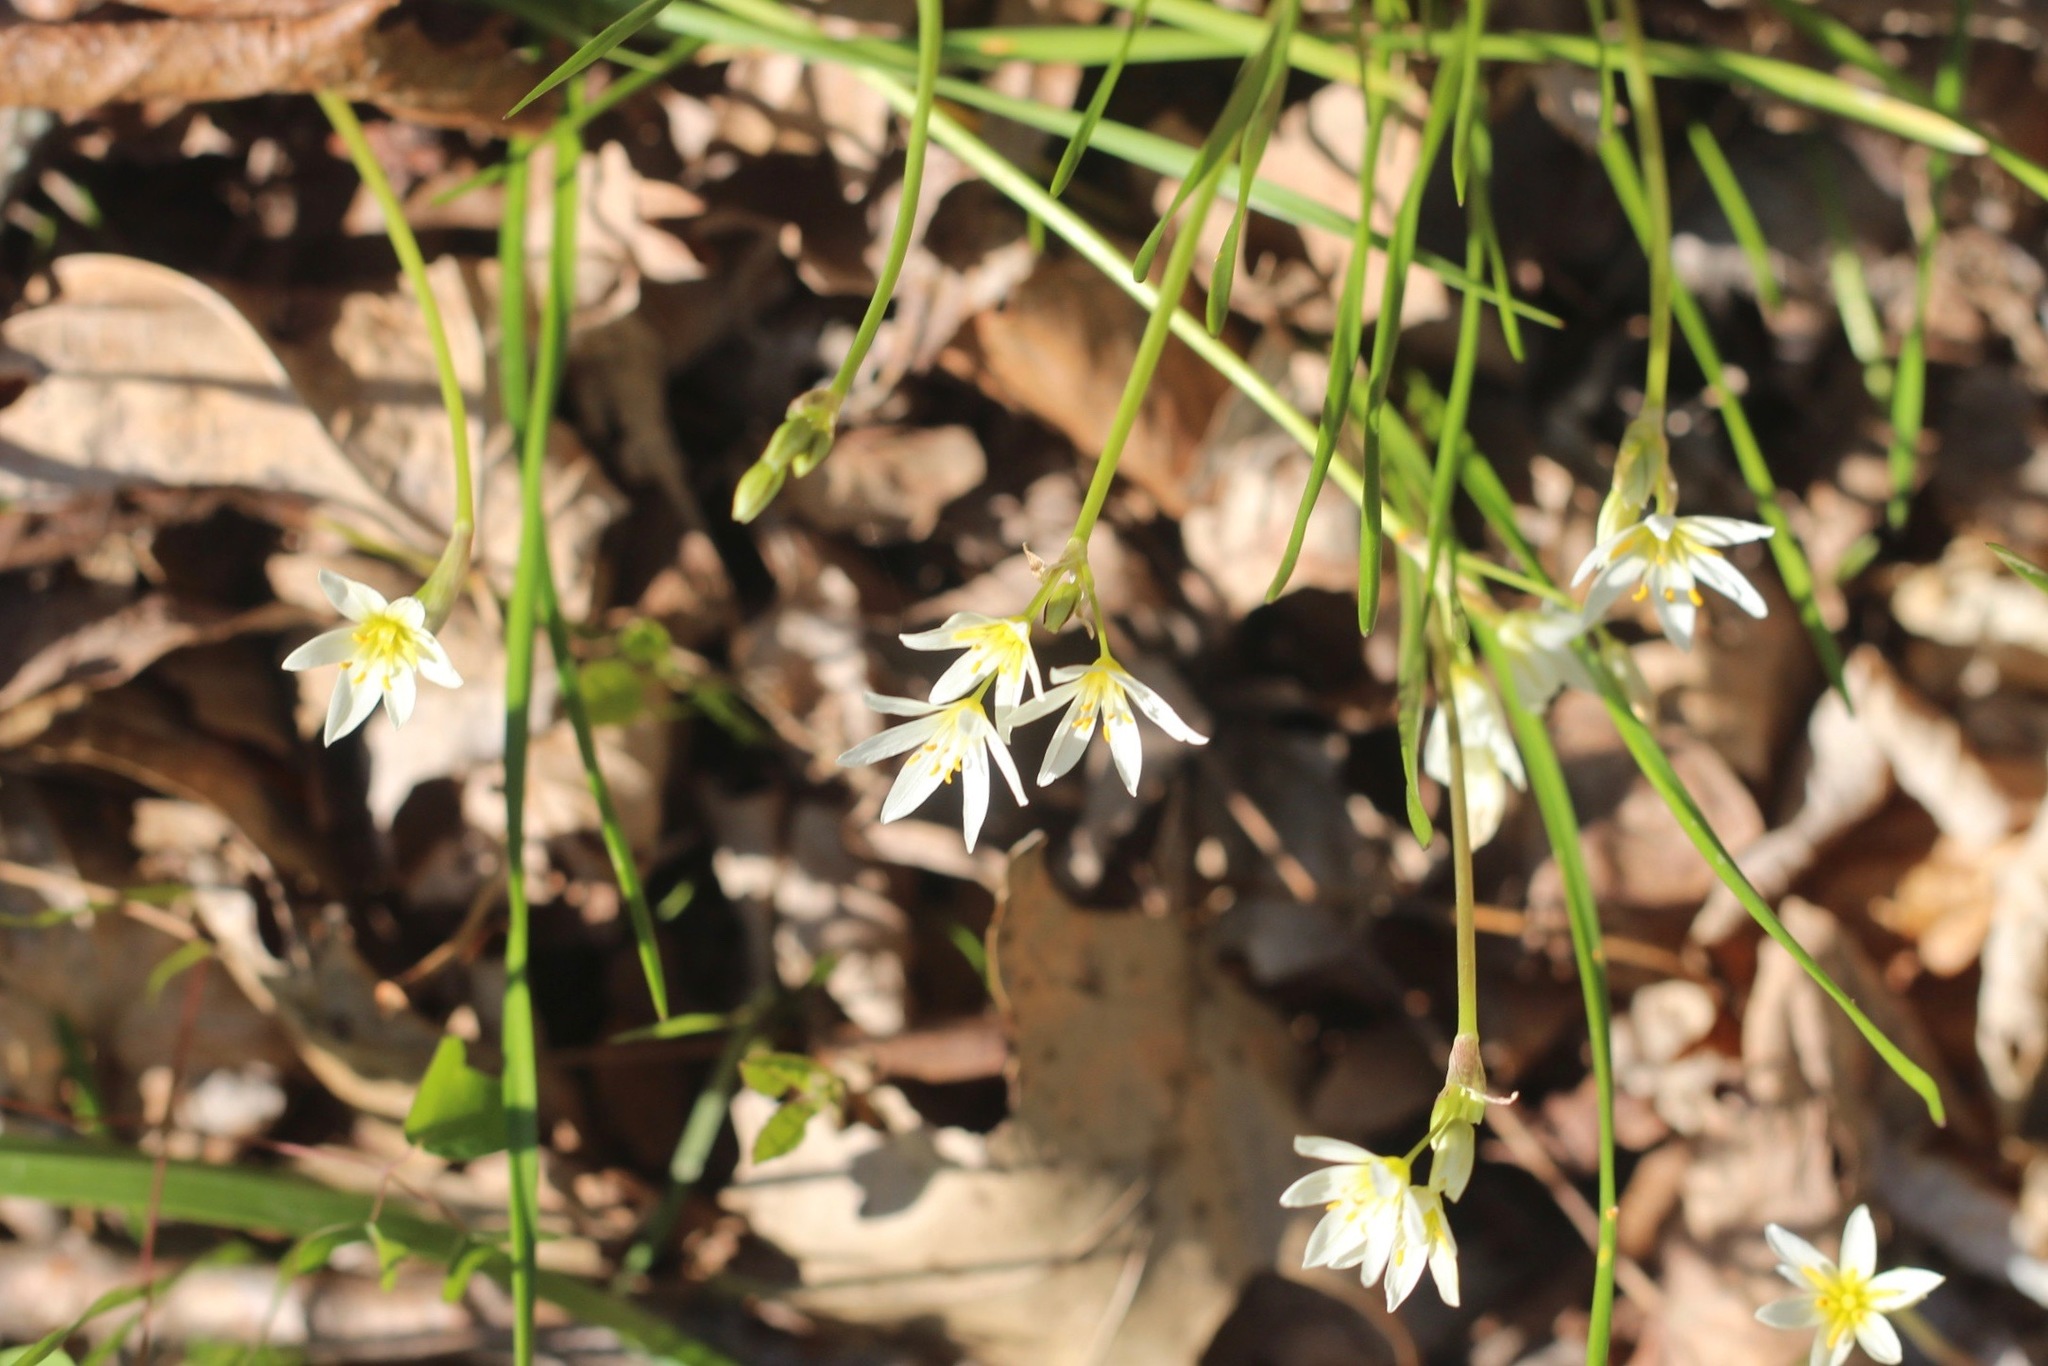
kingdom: Plantae
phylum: Tracheophyta
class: Liliopsida
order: Asparagales
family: Amaryllidaceae
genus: Nothoscordum
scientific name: Nothoscordum bivalve
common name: Crow-poison
